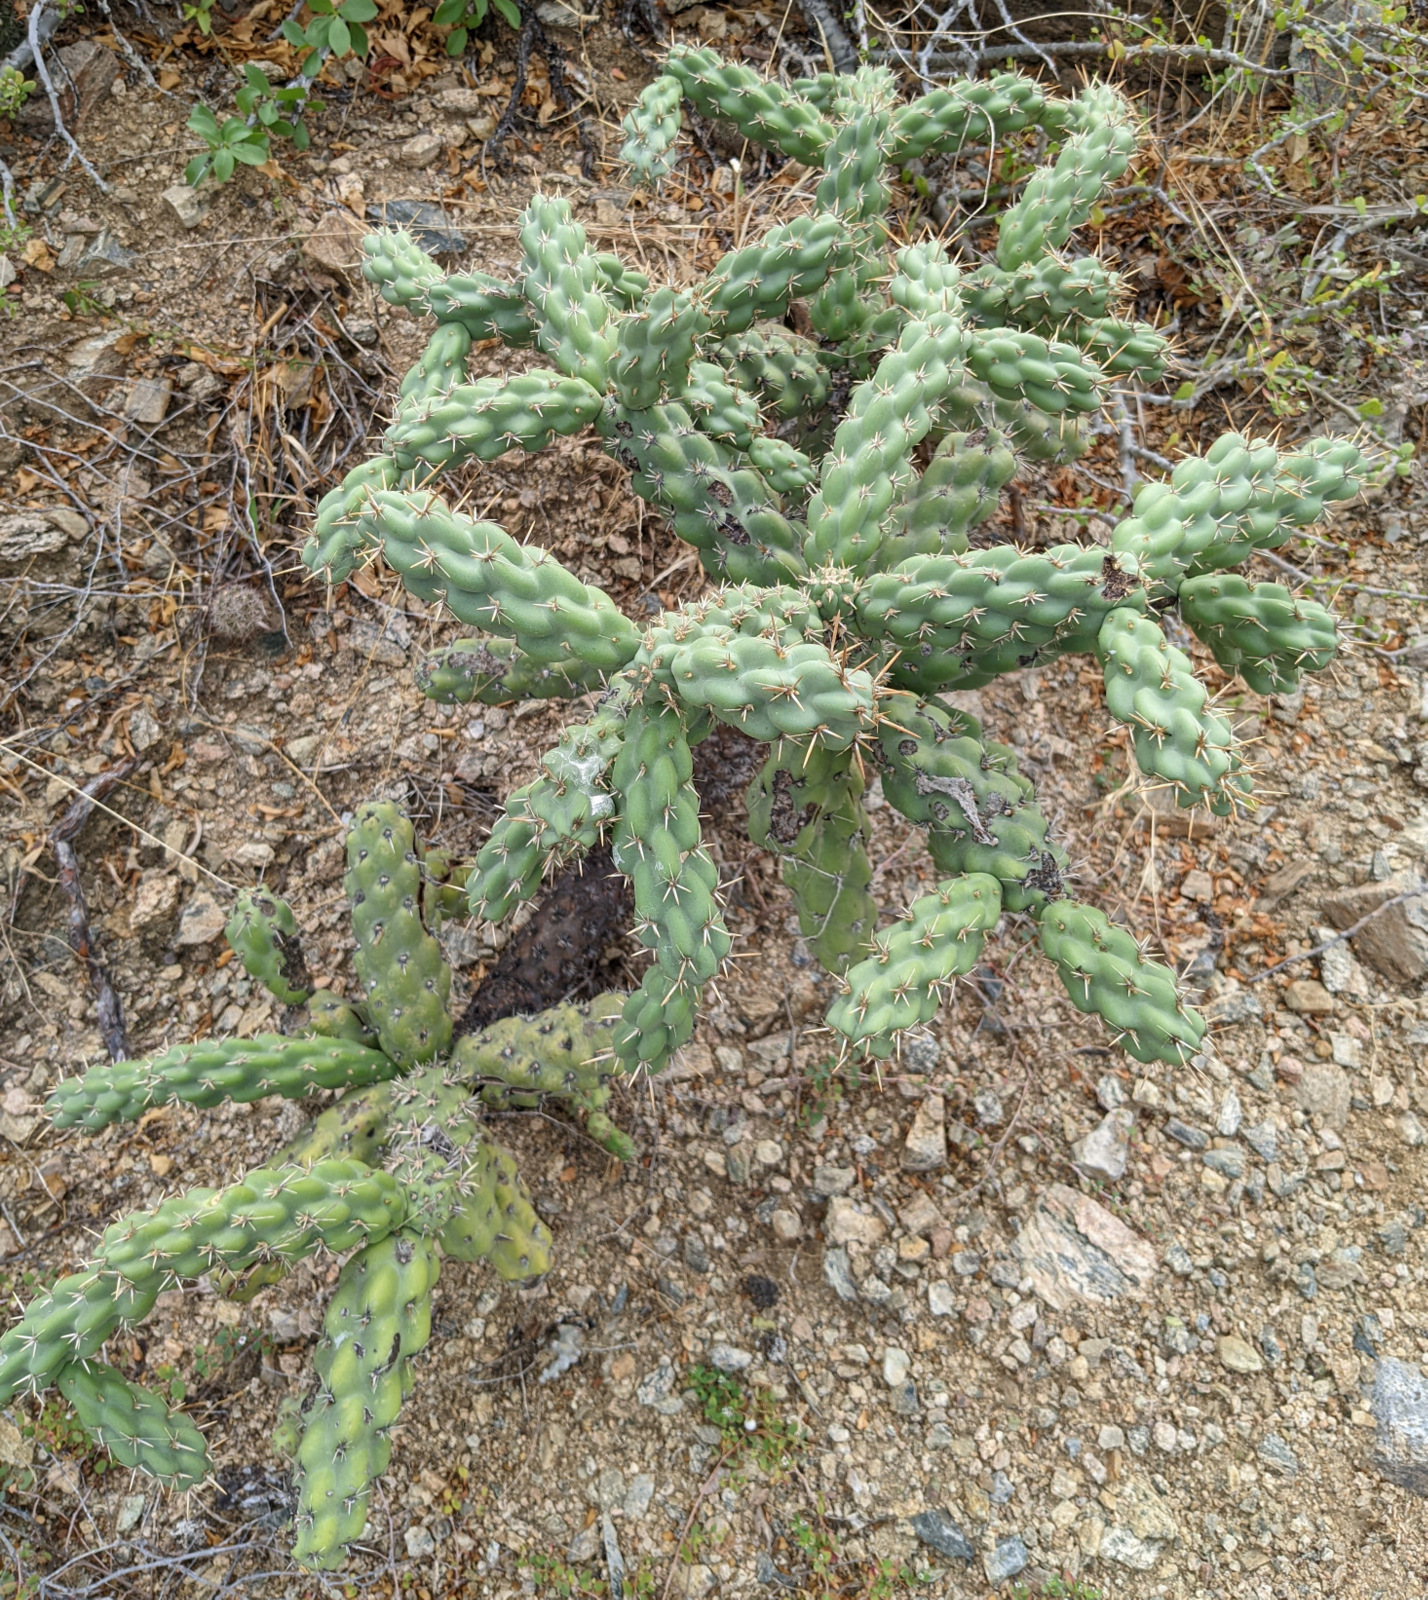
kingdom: Plantae
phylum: Tracheophyta
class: Magnoliopsida
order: Caryophyllales
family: Cactaceae
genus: Cylindropuntia
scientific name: Cylindropuntia cholla
